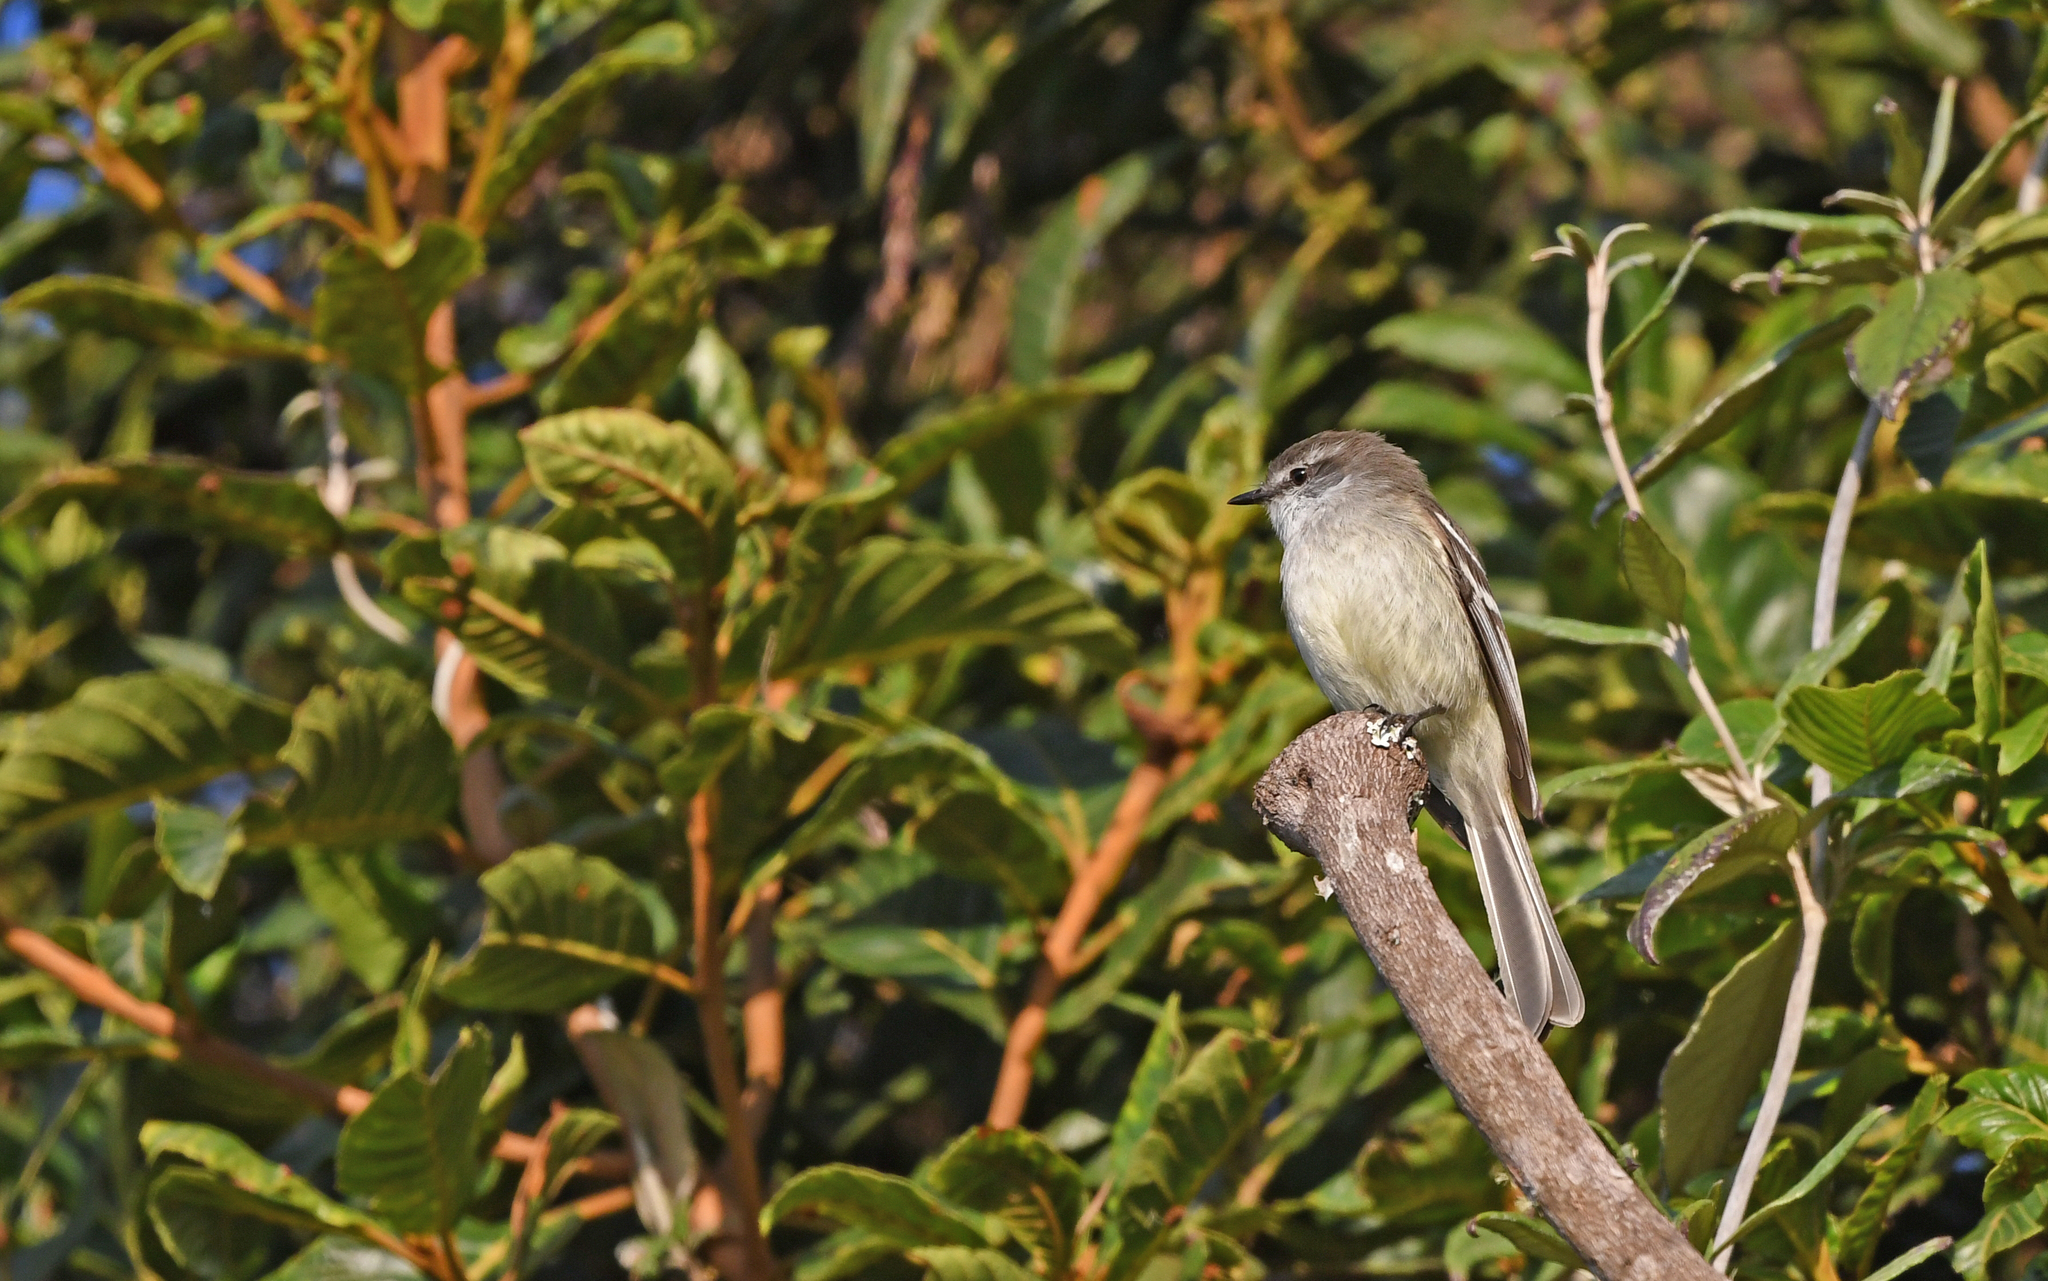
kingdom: Animalia
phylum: Chordata
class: Aves
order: Passeriformes
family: Tyrannidae
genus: Mecocerculus
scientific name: Mecocerculus leucophrys
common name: White-throated tyrannulet
